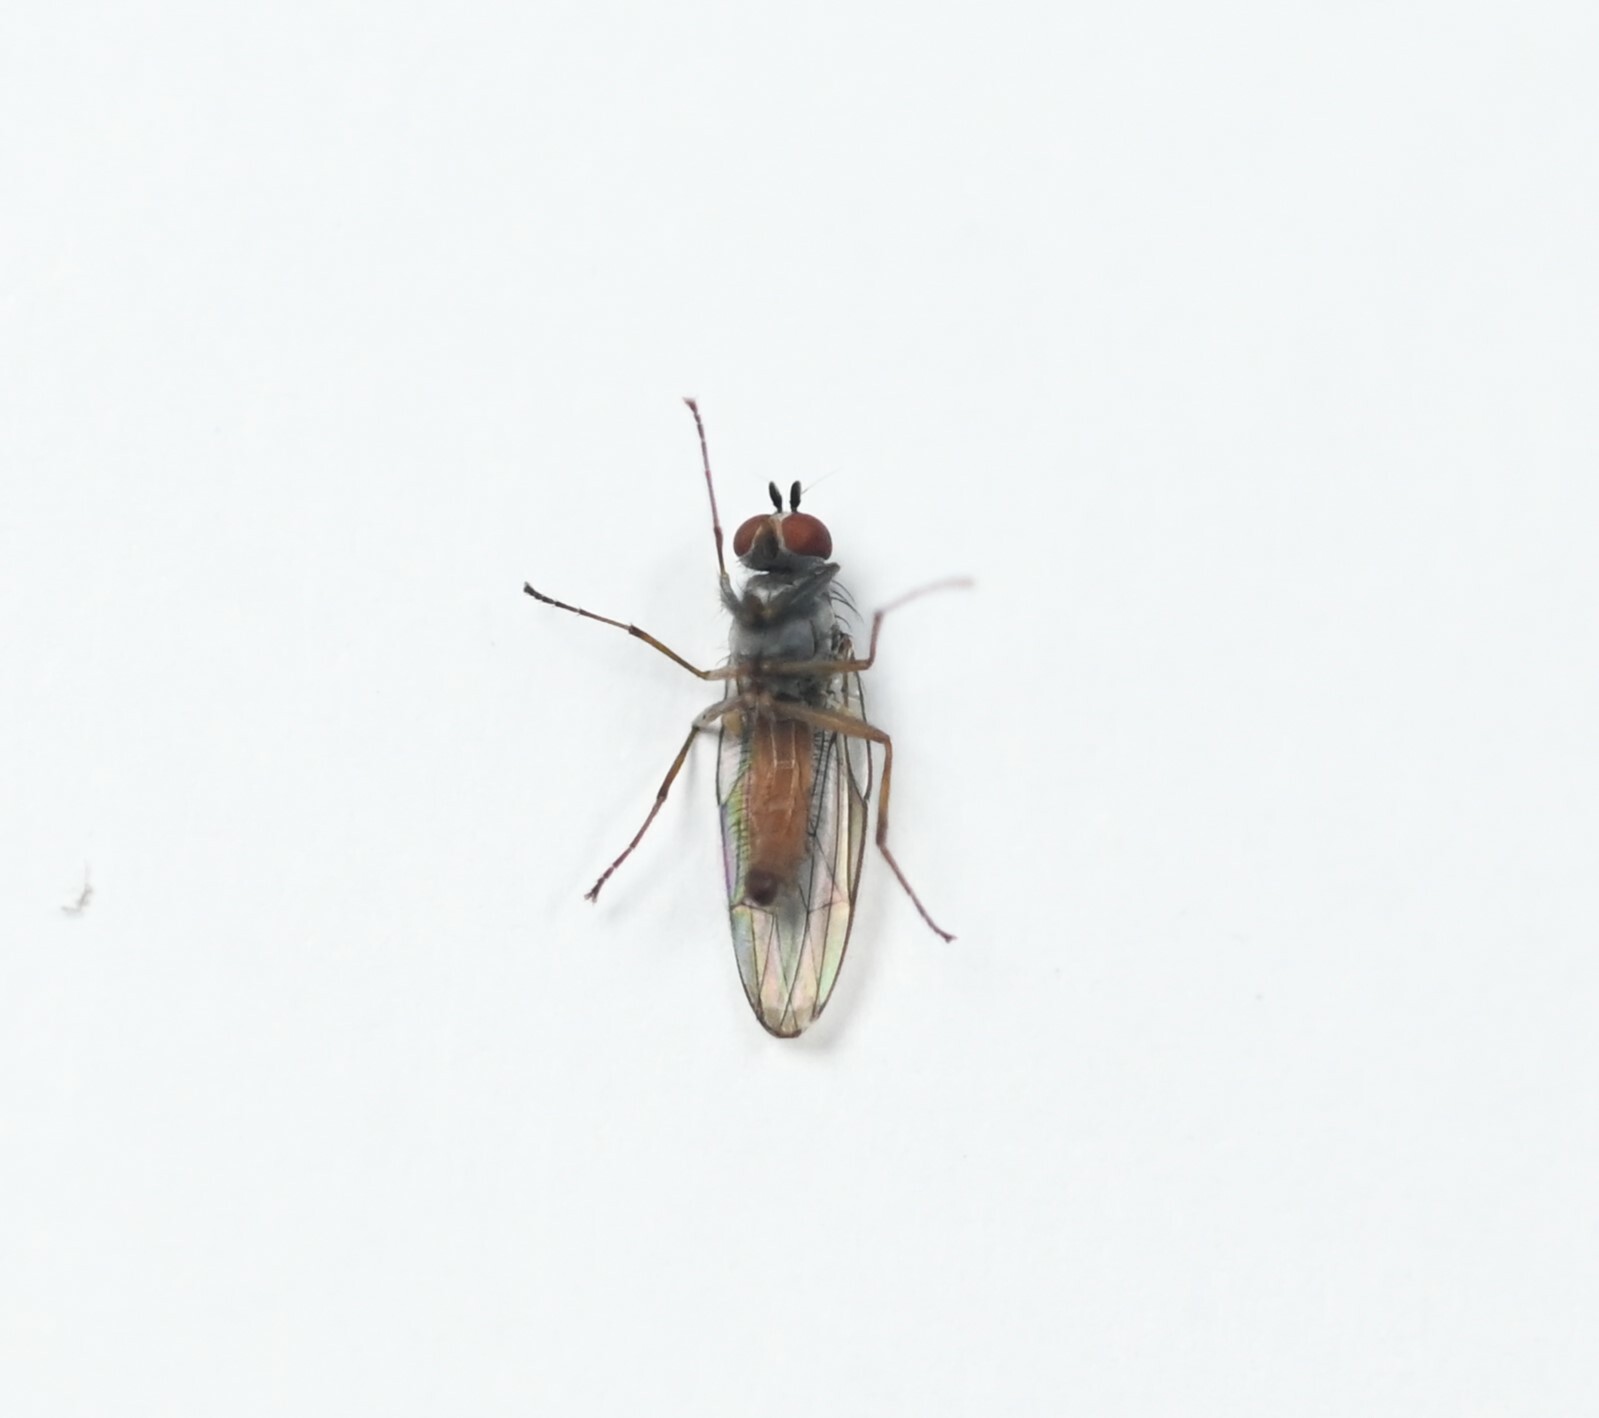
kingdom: Animalia
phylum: Arthropoda
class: Insecta
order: Diptera
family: Heleomyzidae
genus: Heteromyza
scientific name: Heteromyza rotundicornis
